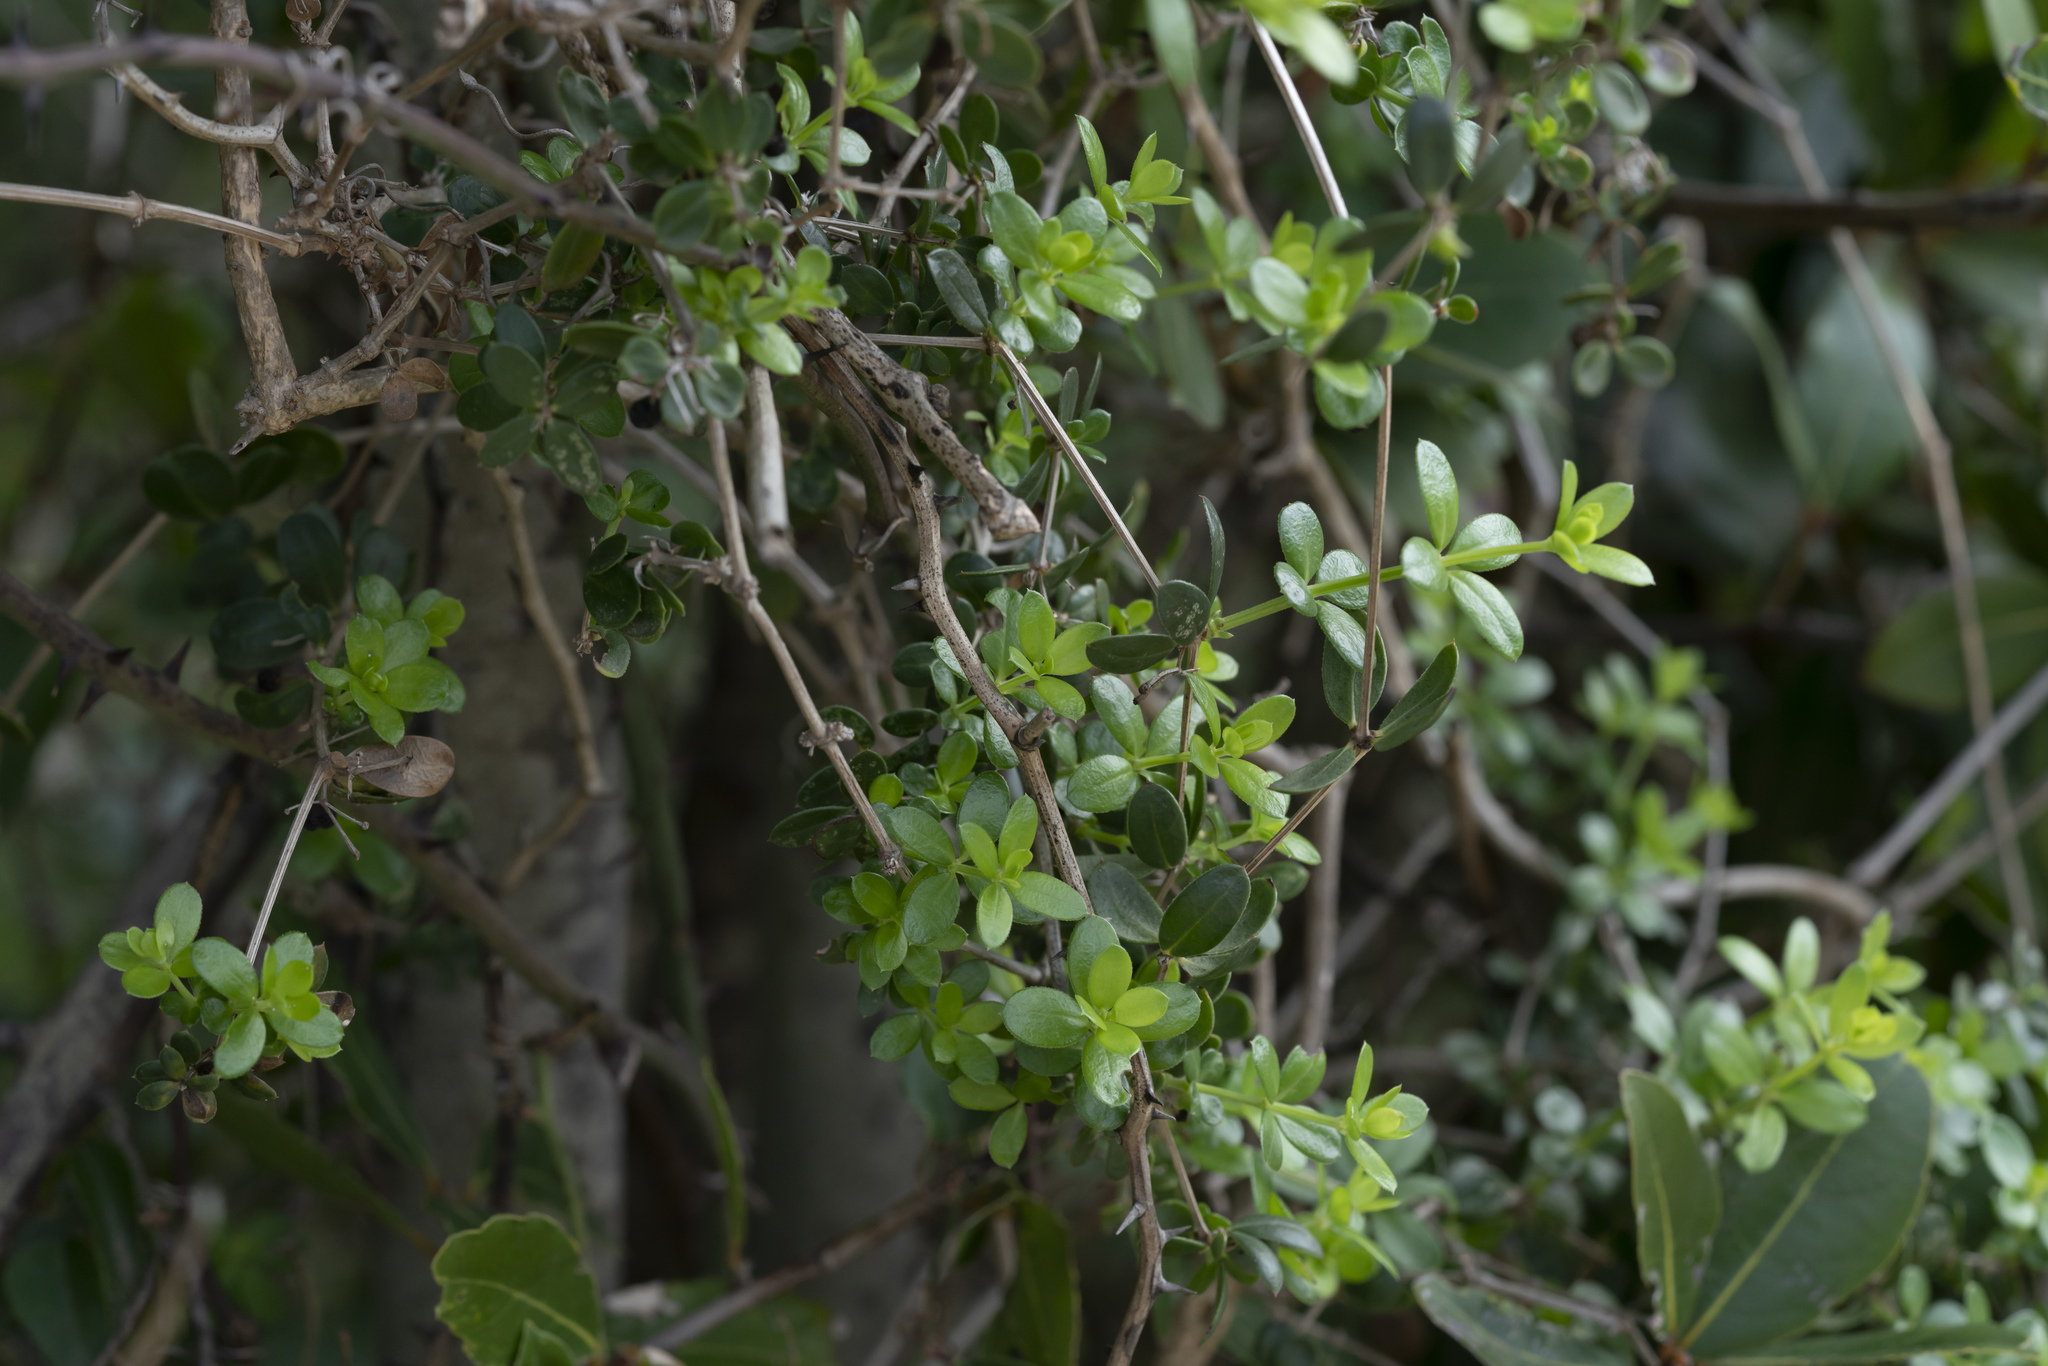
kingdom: Plantae
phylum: Tracheophyta
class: Magnoliopsida
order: Gentianales
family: Rubiaceae
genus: Rubia
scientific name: Rubia tenuifolia
